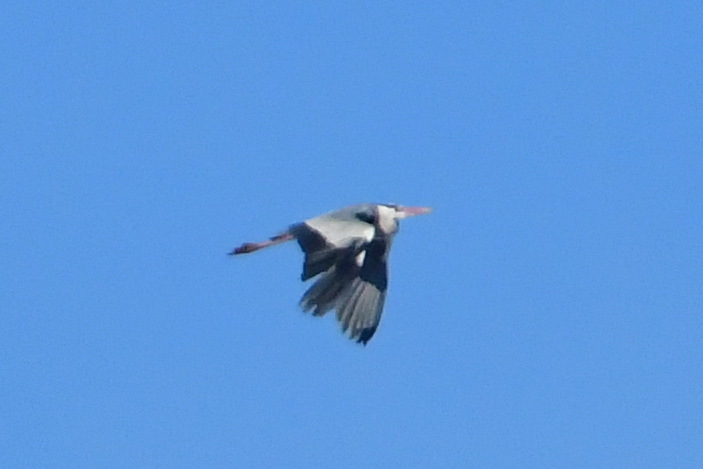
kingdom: Animalia
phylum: Chordata
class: Aves
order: Pelecaniformes
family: Ardeidae
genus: Ardea
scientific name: Ardea cinerea
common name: Grey heron
